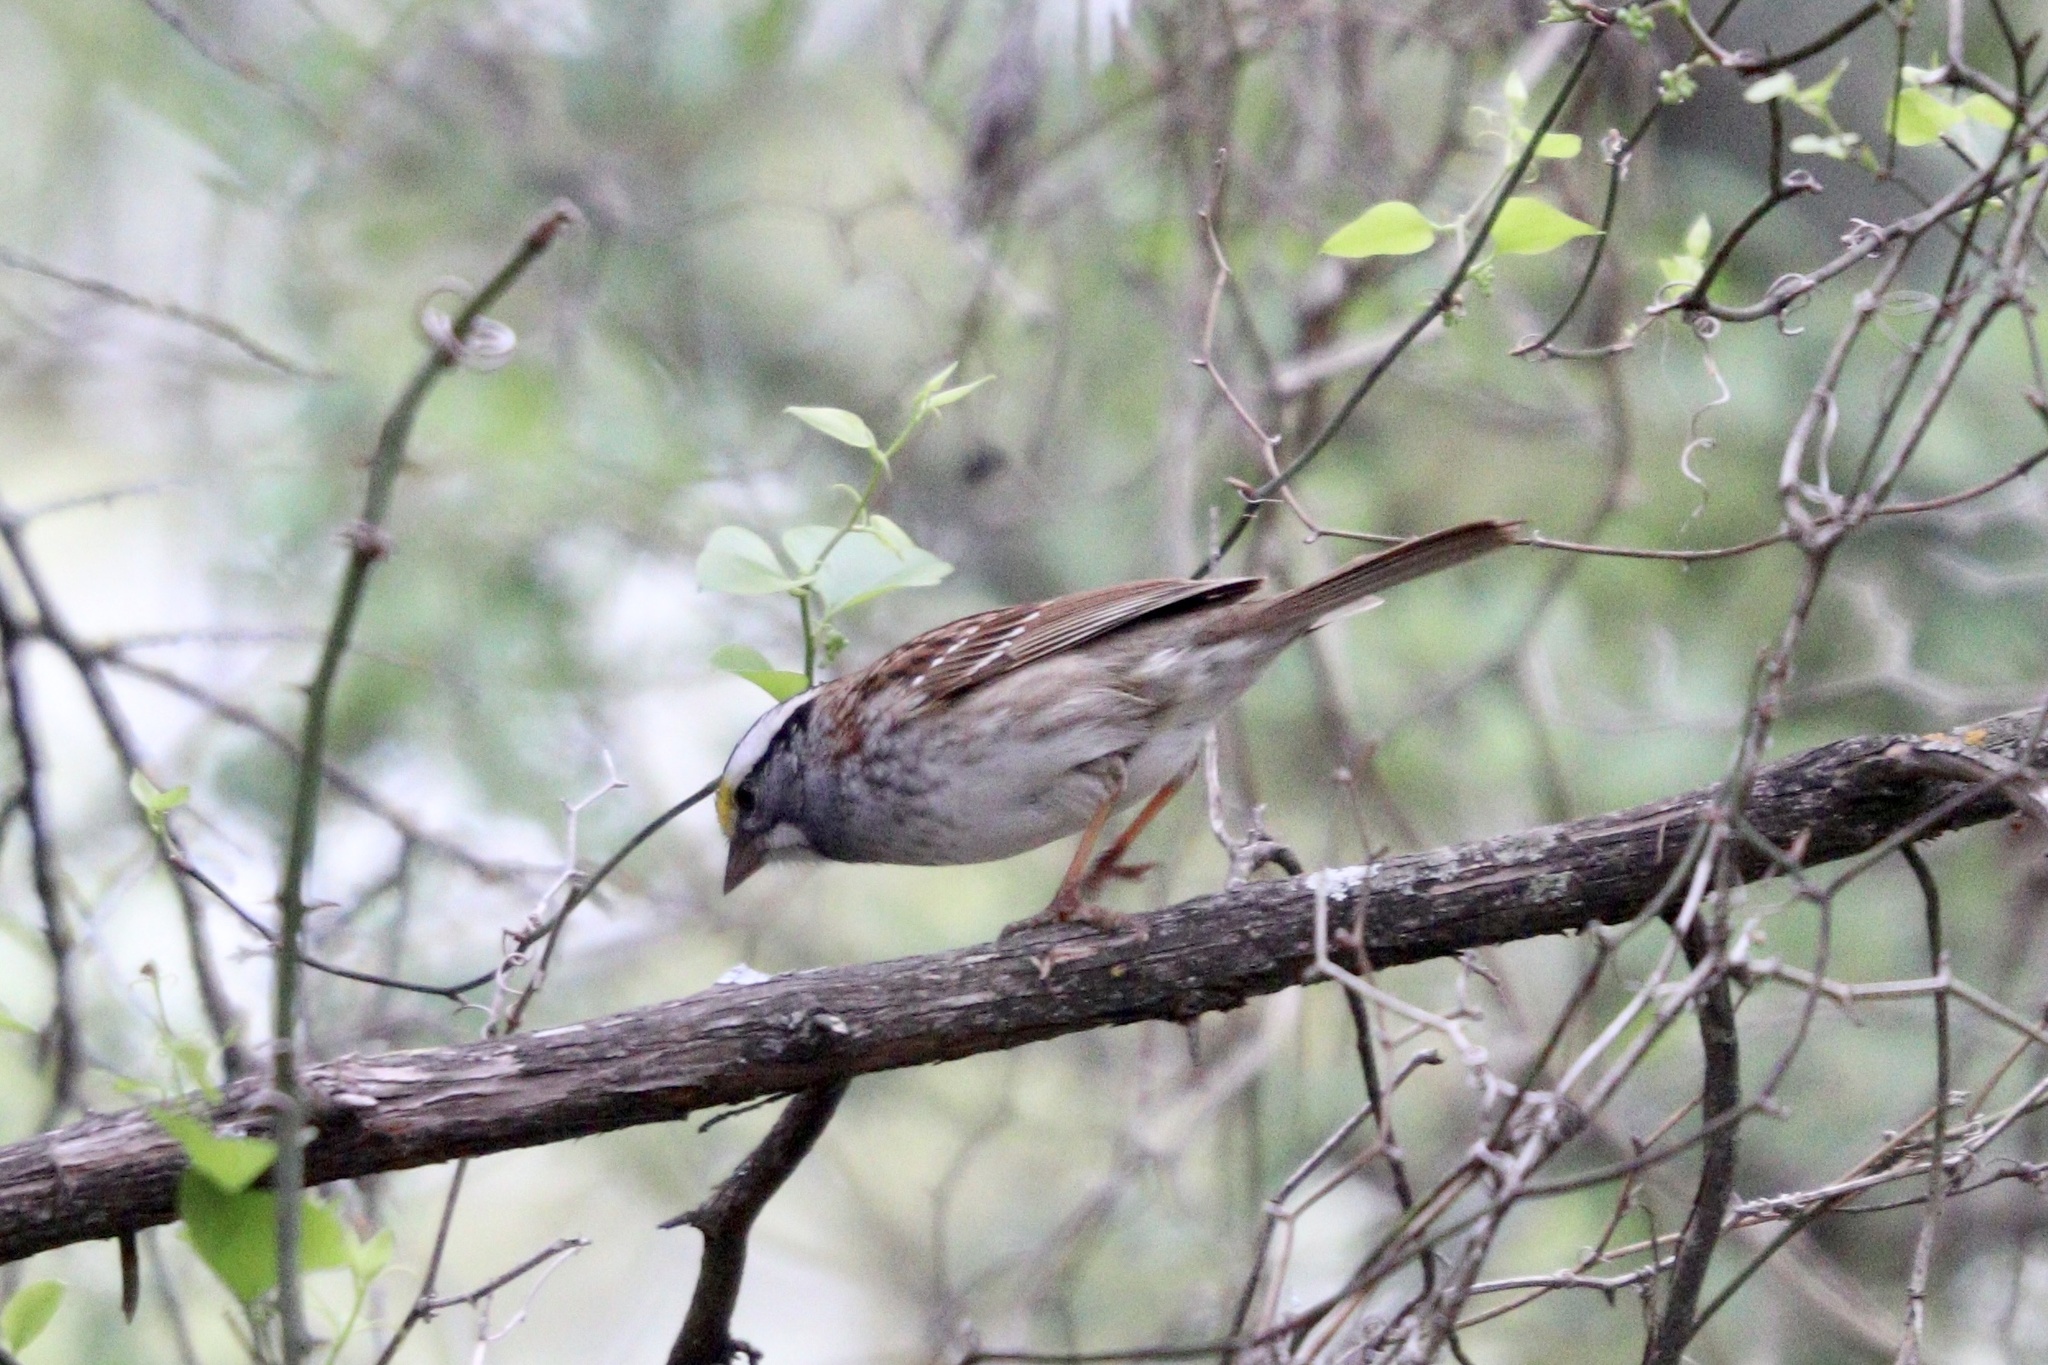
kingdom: Animalia
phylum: Chordata
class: Aves
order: Passeriformes
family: Passerellidae
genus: Zonotrichia
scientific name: Zonotrichia albicollis
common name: White-throated sparrow
